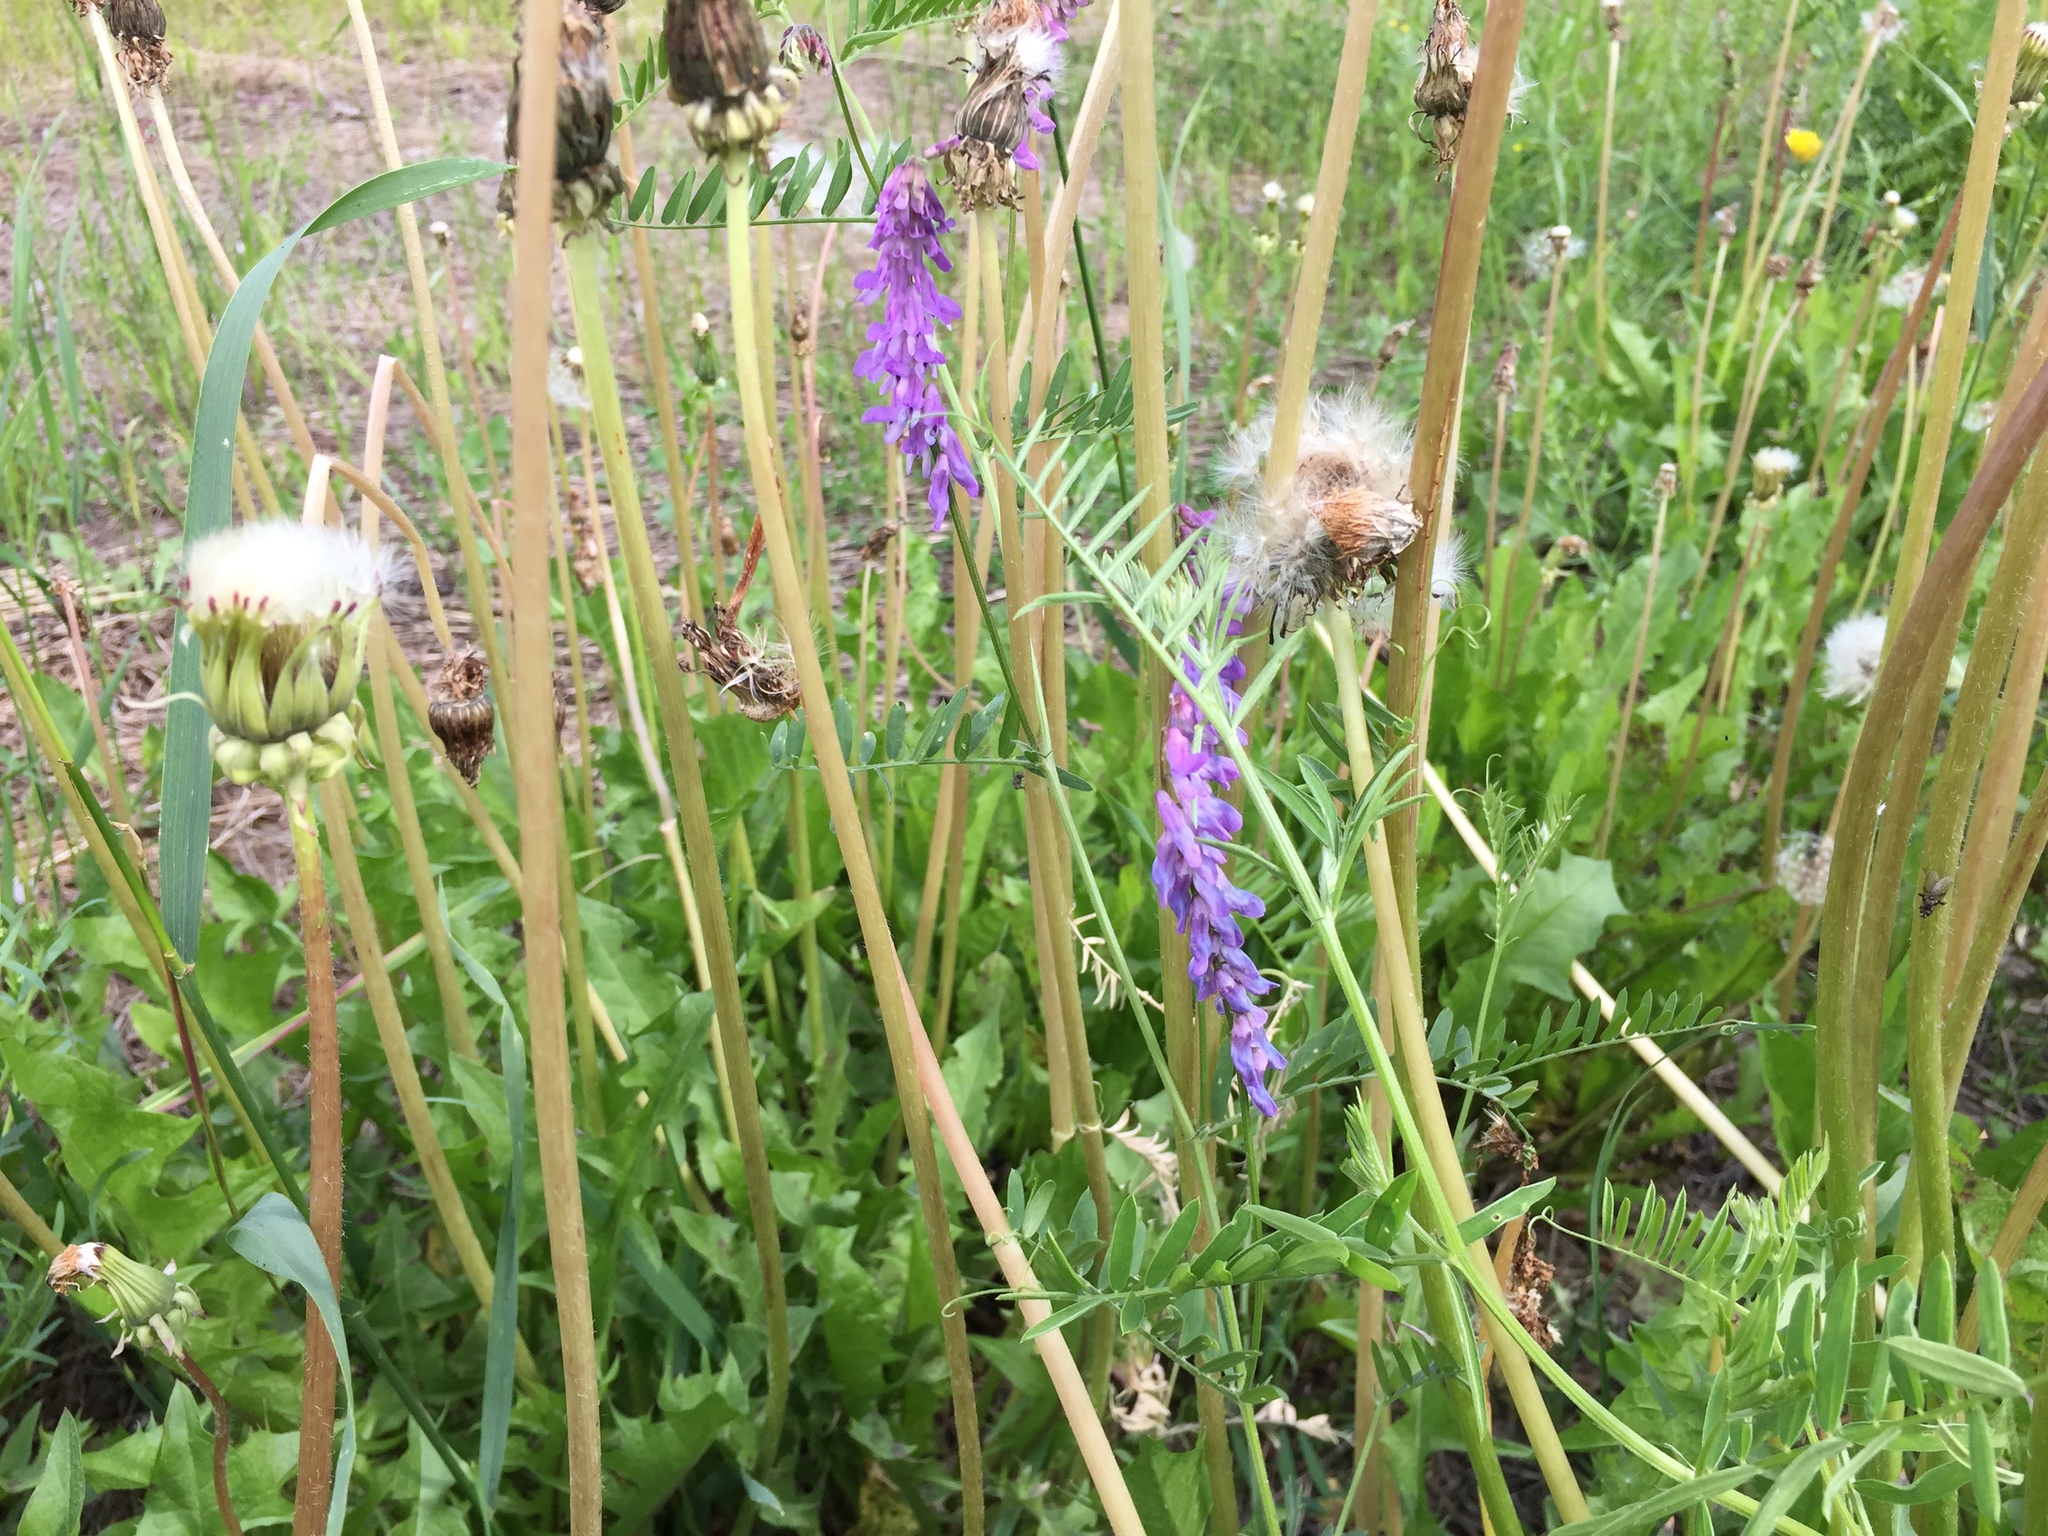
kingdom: Plantae
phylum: Tracheophyta
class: Magnoliopsida
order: Fabales
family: Fabaceae
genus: Vicia
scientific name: Vicia cracca
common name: Bird vetch
